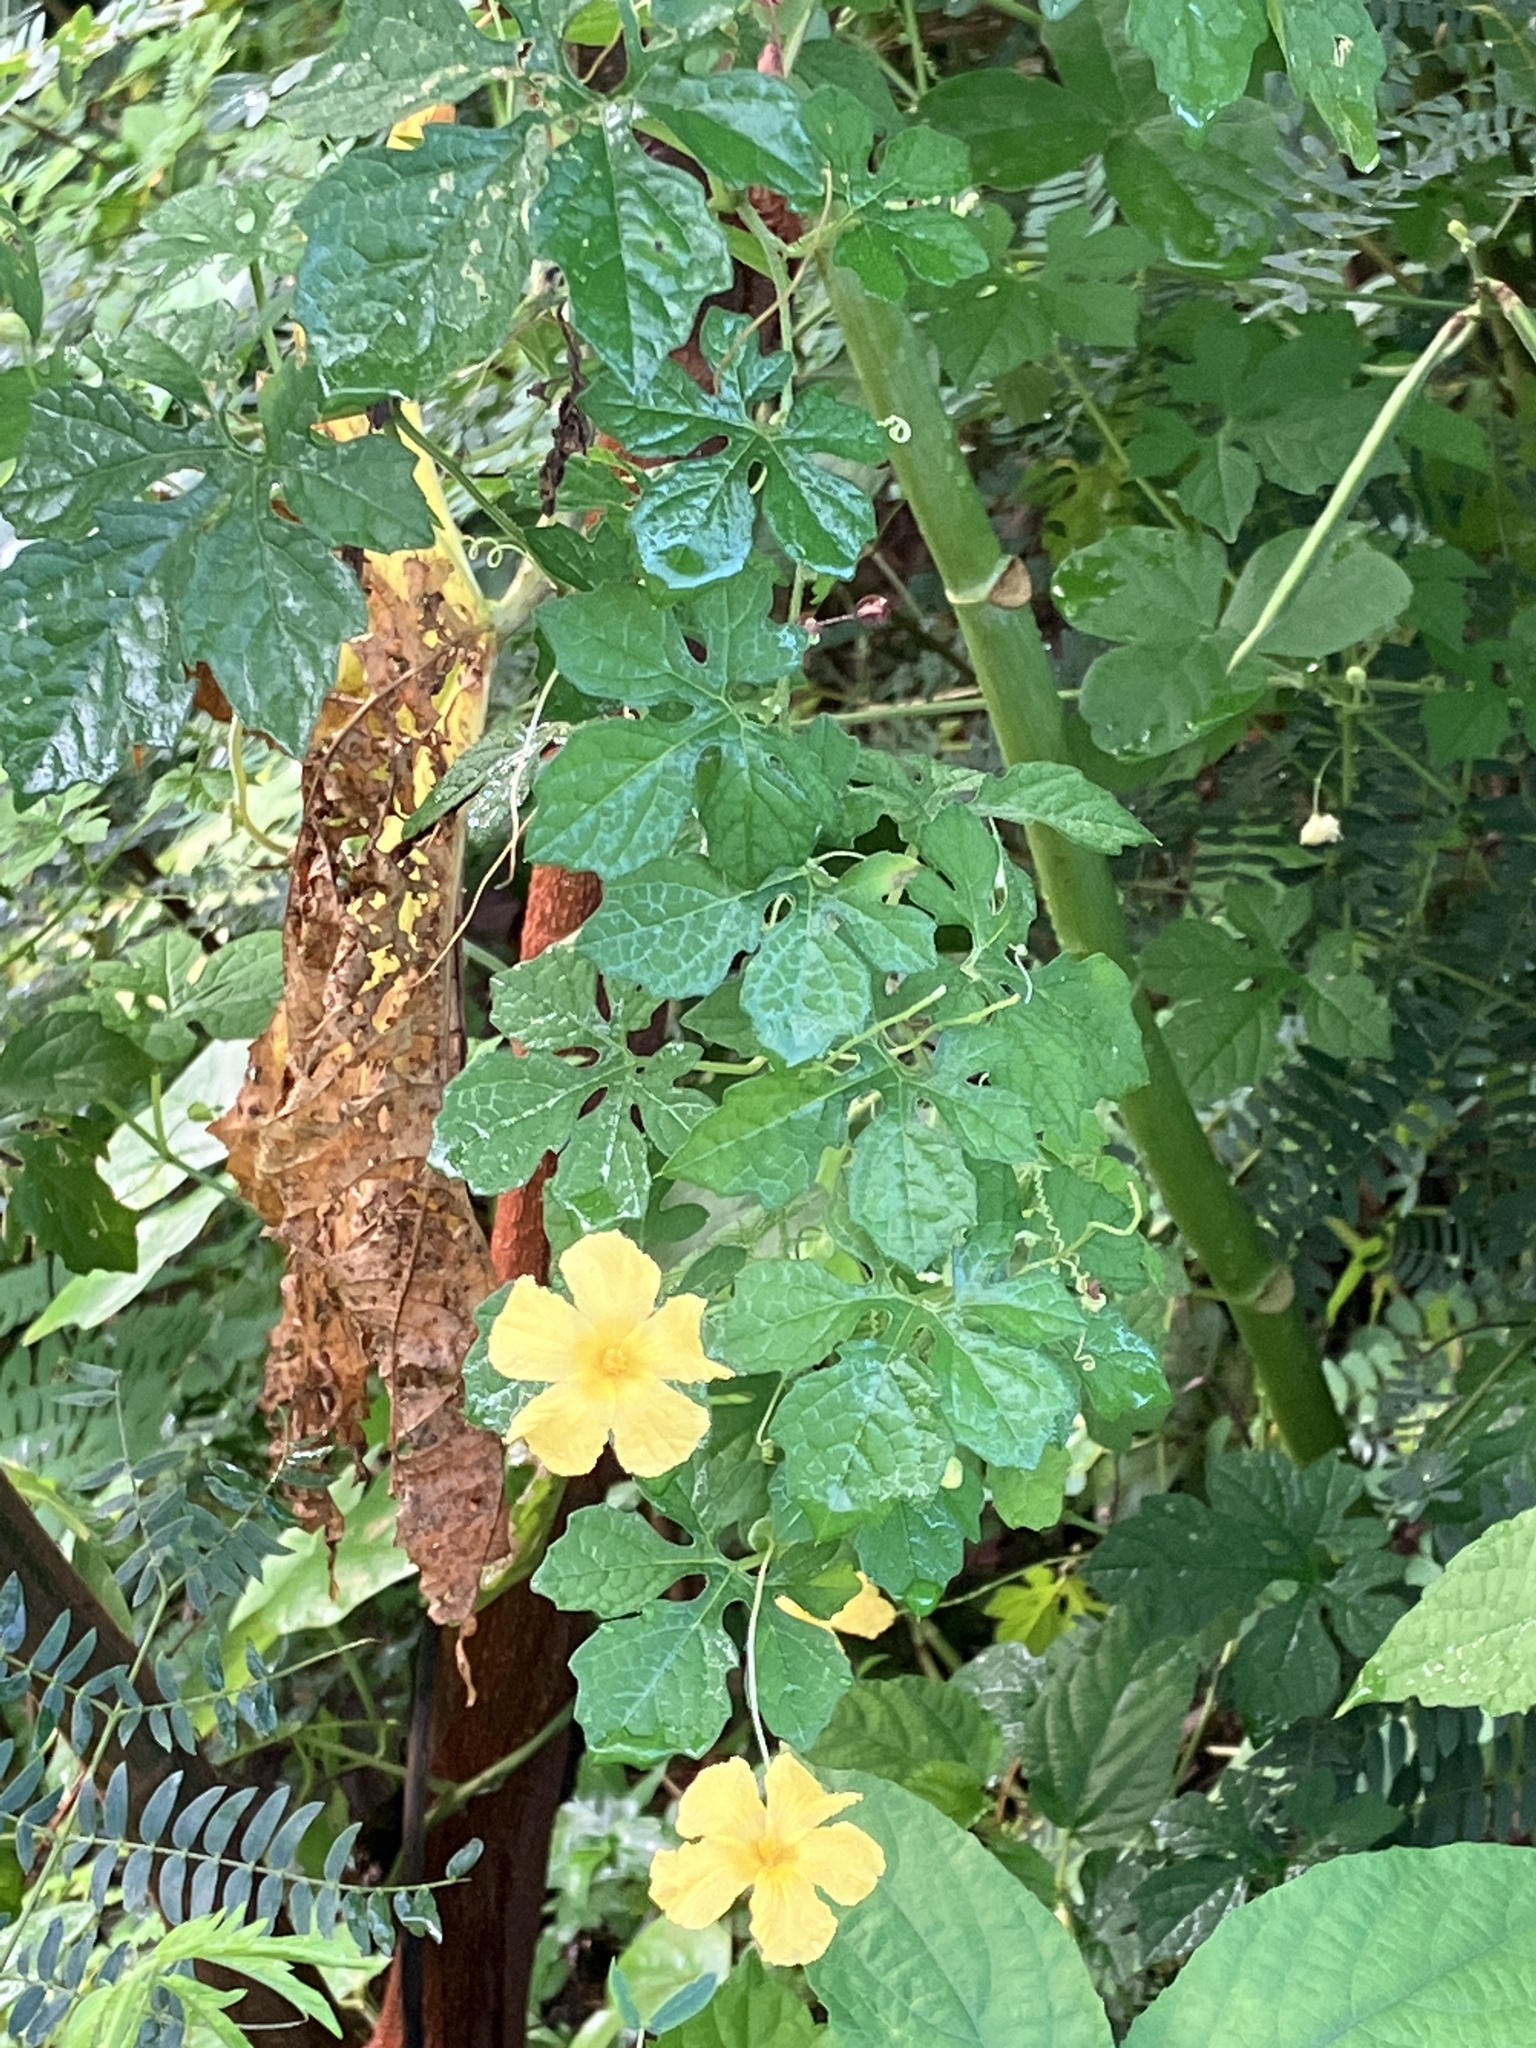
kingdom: Plantae
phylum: Tracheophyta
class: Magnoliopsida
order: Cucurbitales
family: Cucurbitaceae
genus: Momordica
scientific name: Momordica charantia
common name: Balsampear
